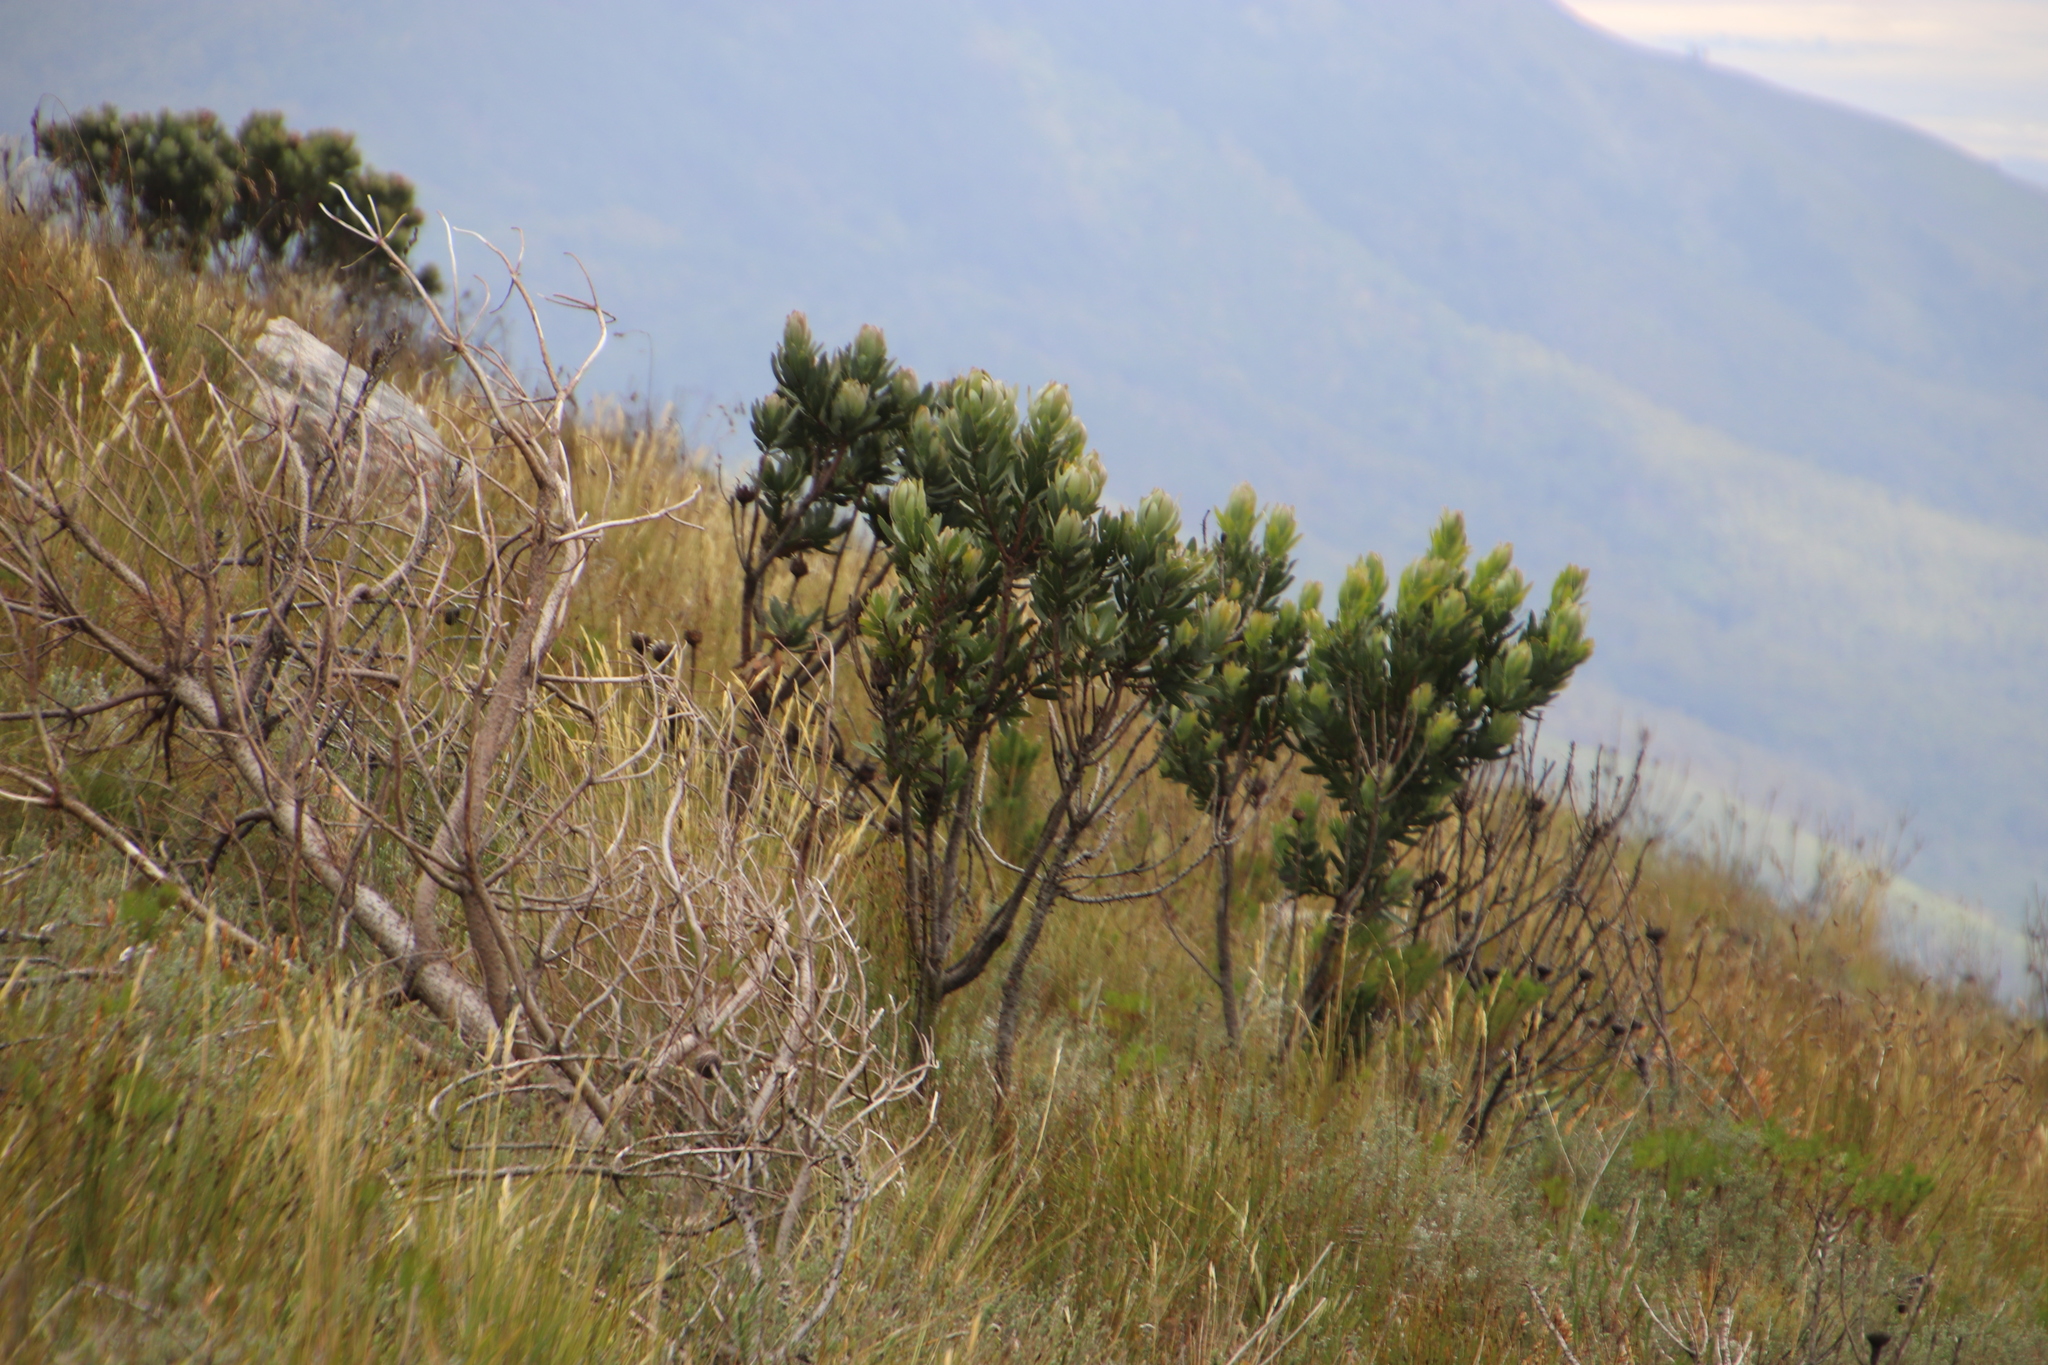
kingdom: Plantae
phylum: Tracheophyta
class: Magnoliopsida
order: Proteales
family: Proteaceae
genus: Protea
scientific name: Protea laurifolia
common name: Grey-leaf sugarbsh
